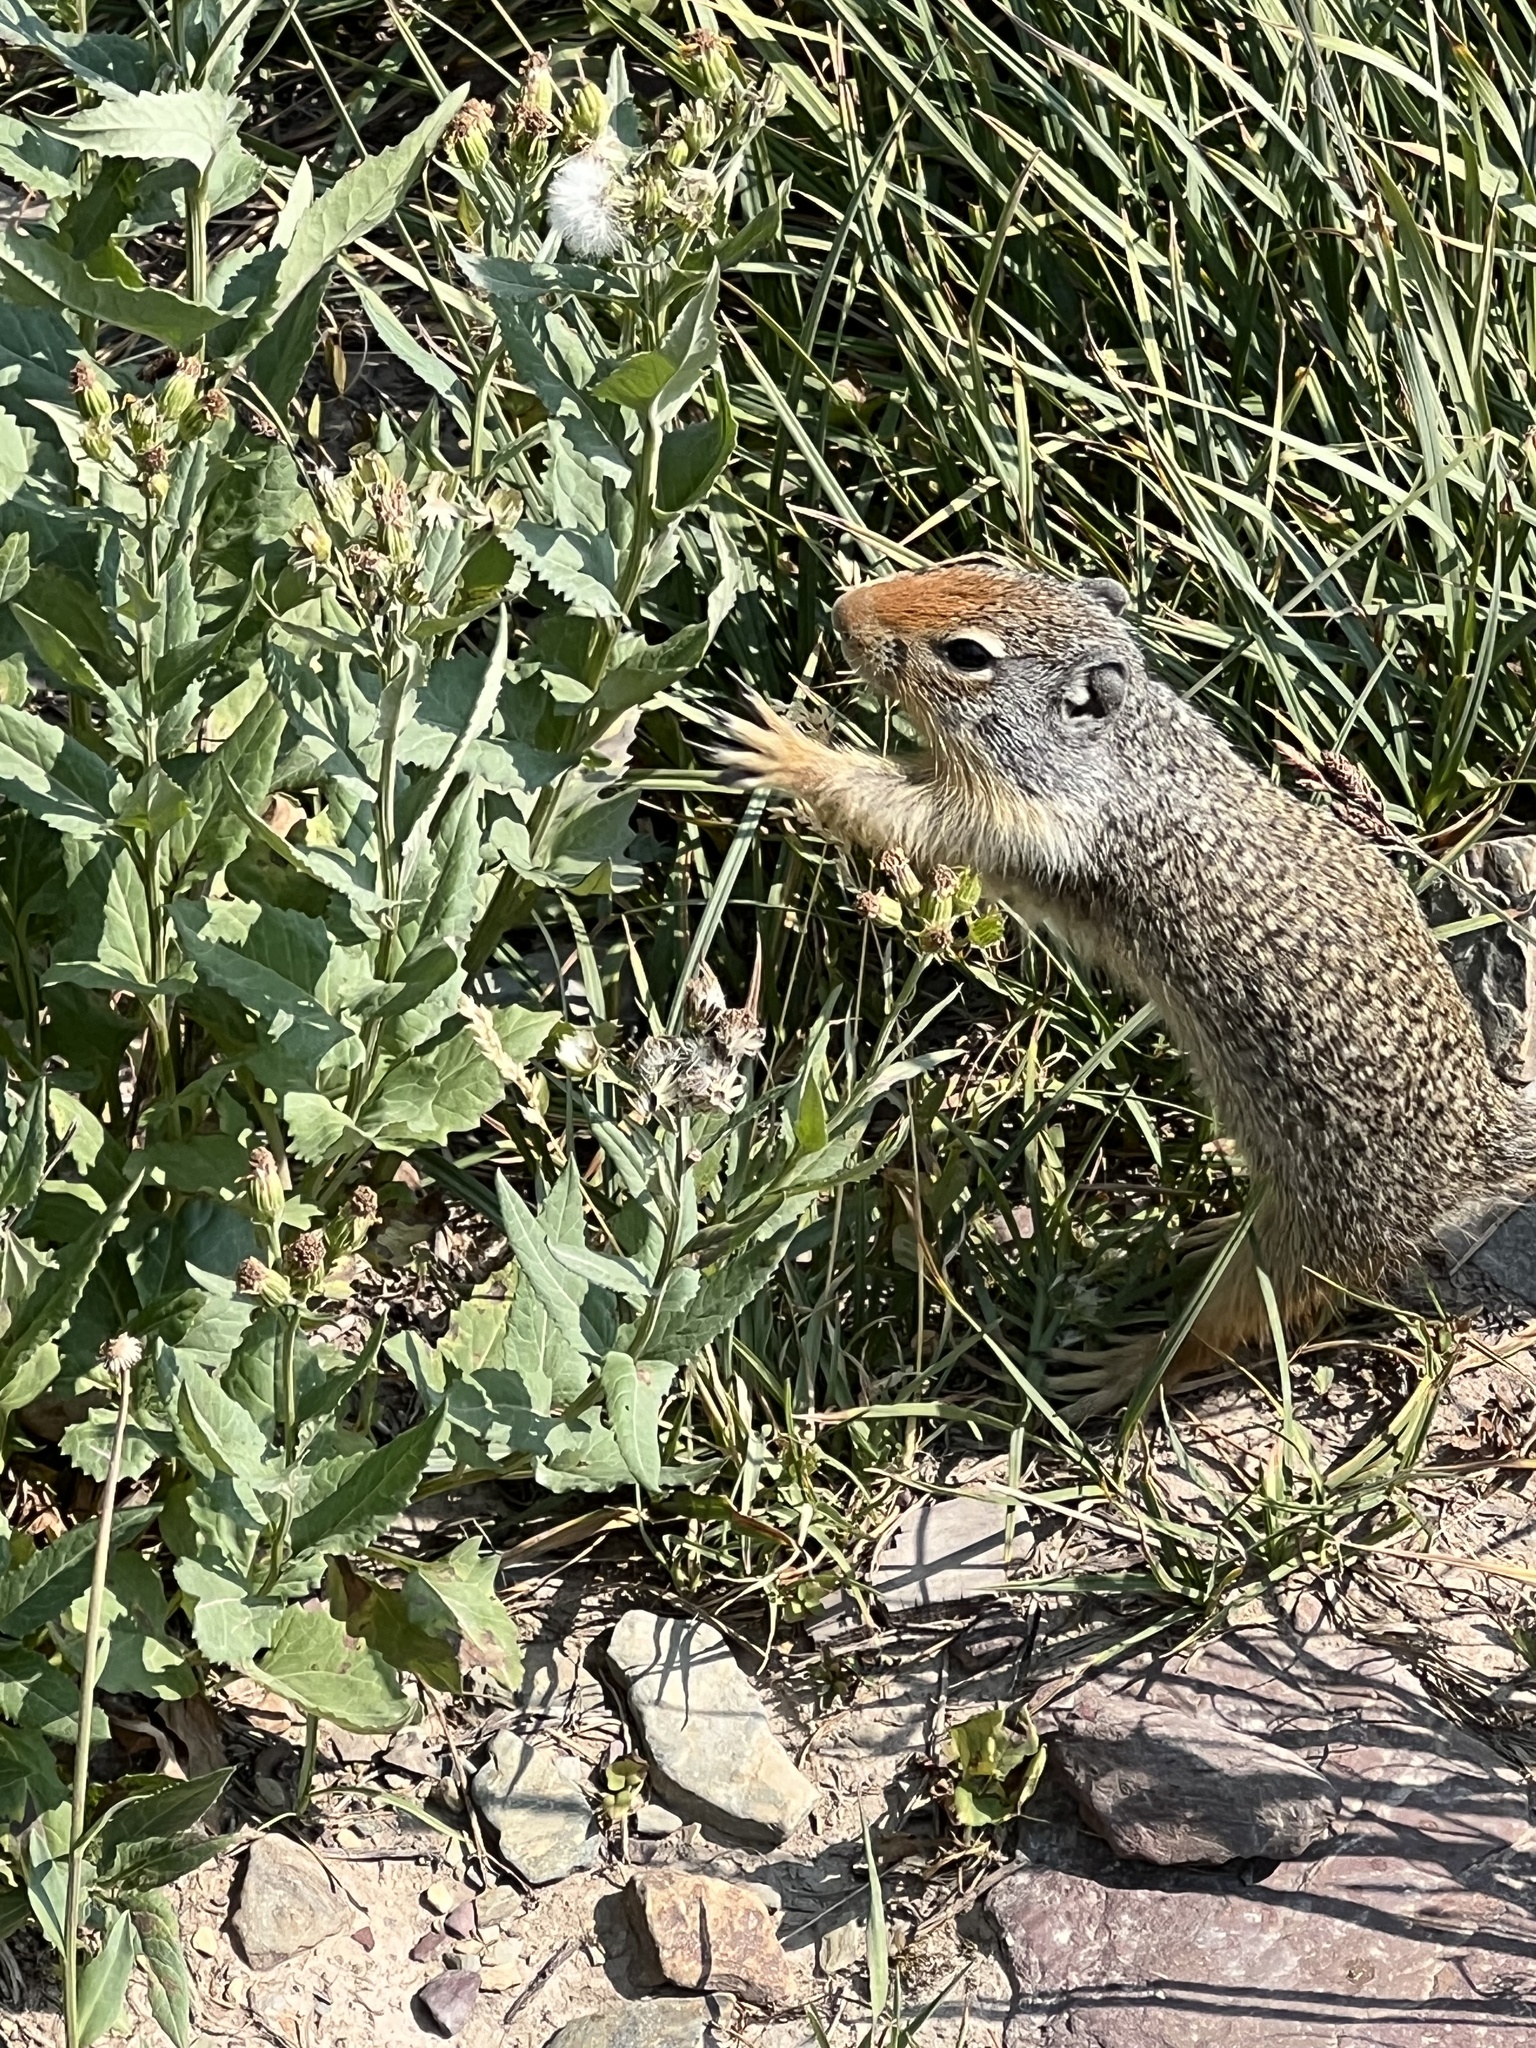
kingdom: Animalia
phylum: Chordata
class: Mammalia
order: Rodentia
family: Sciuridae
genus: Urocitellus
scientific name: Urocitellus columbianus
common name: Columbian ground squirrel
